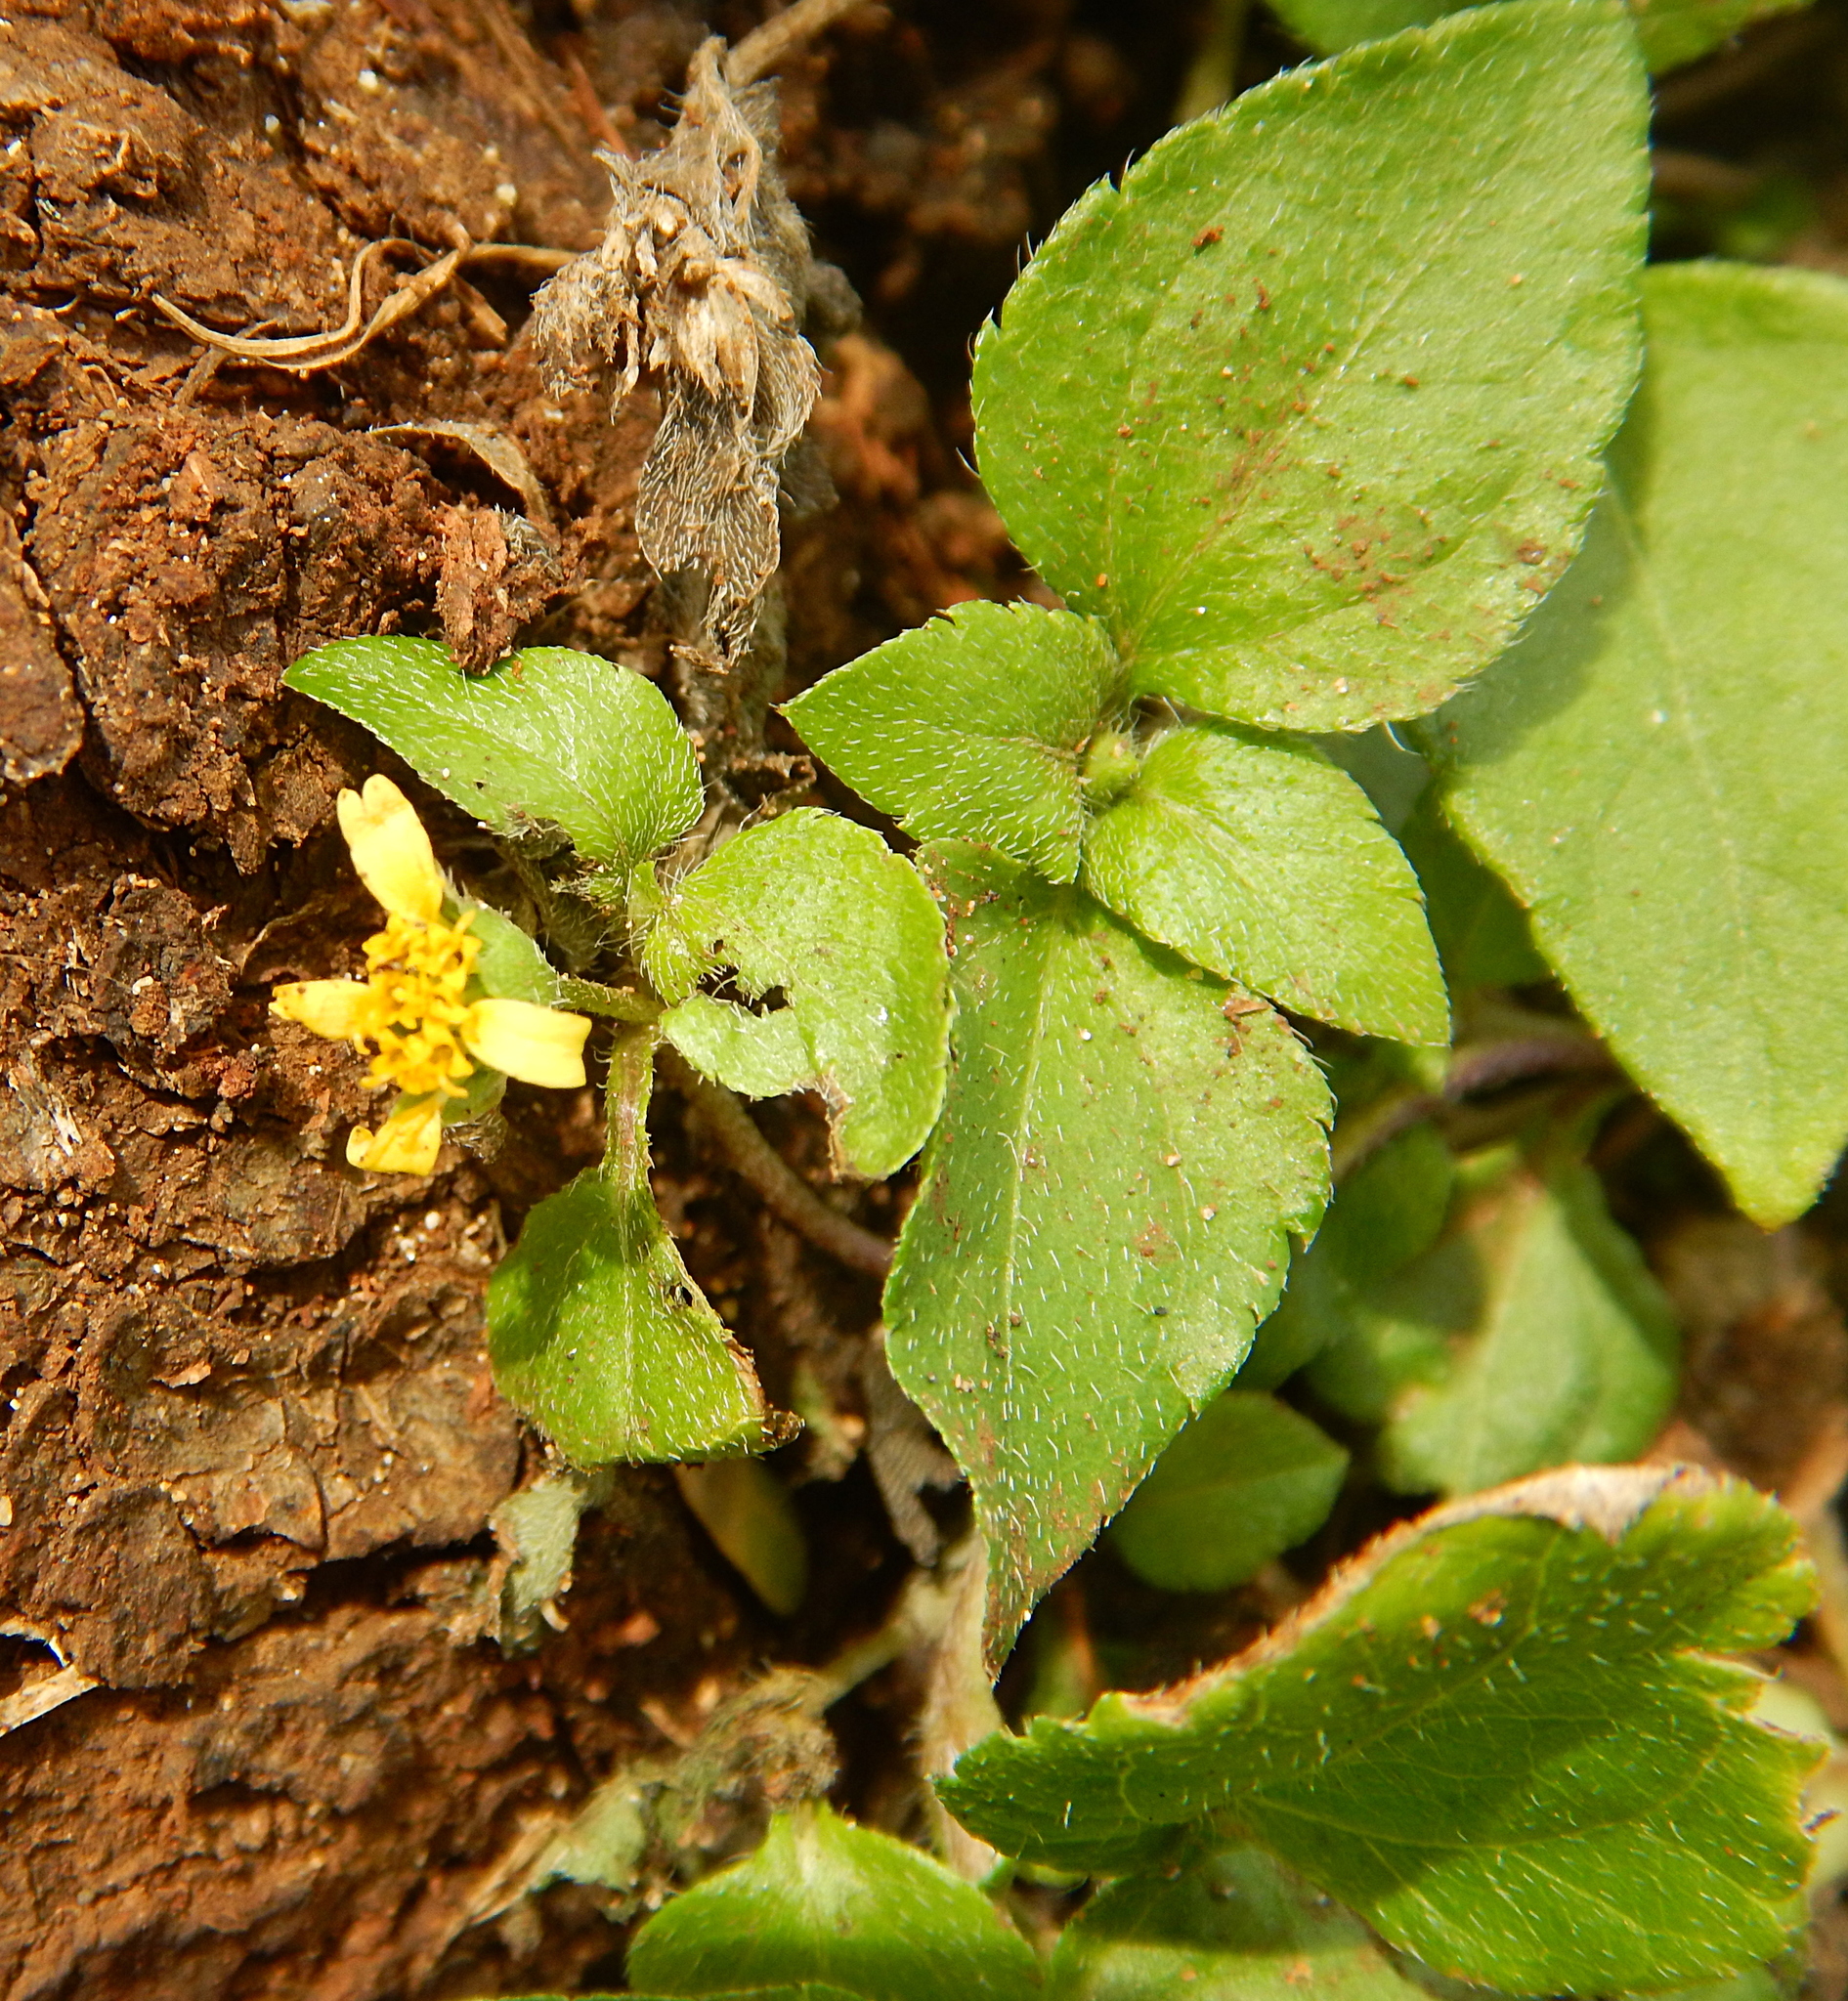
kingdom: Plantae
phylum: Tracheophyta
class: Magnoliopsida
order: Asterales
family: Asteraceae
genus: Calyptocarpus
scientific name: Calyptocarpus vialis
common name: Straggler daisy
